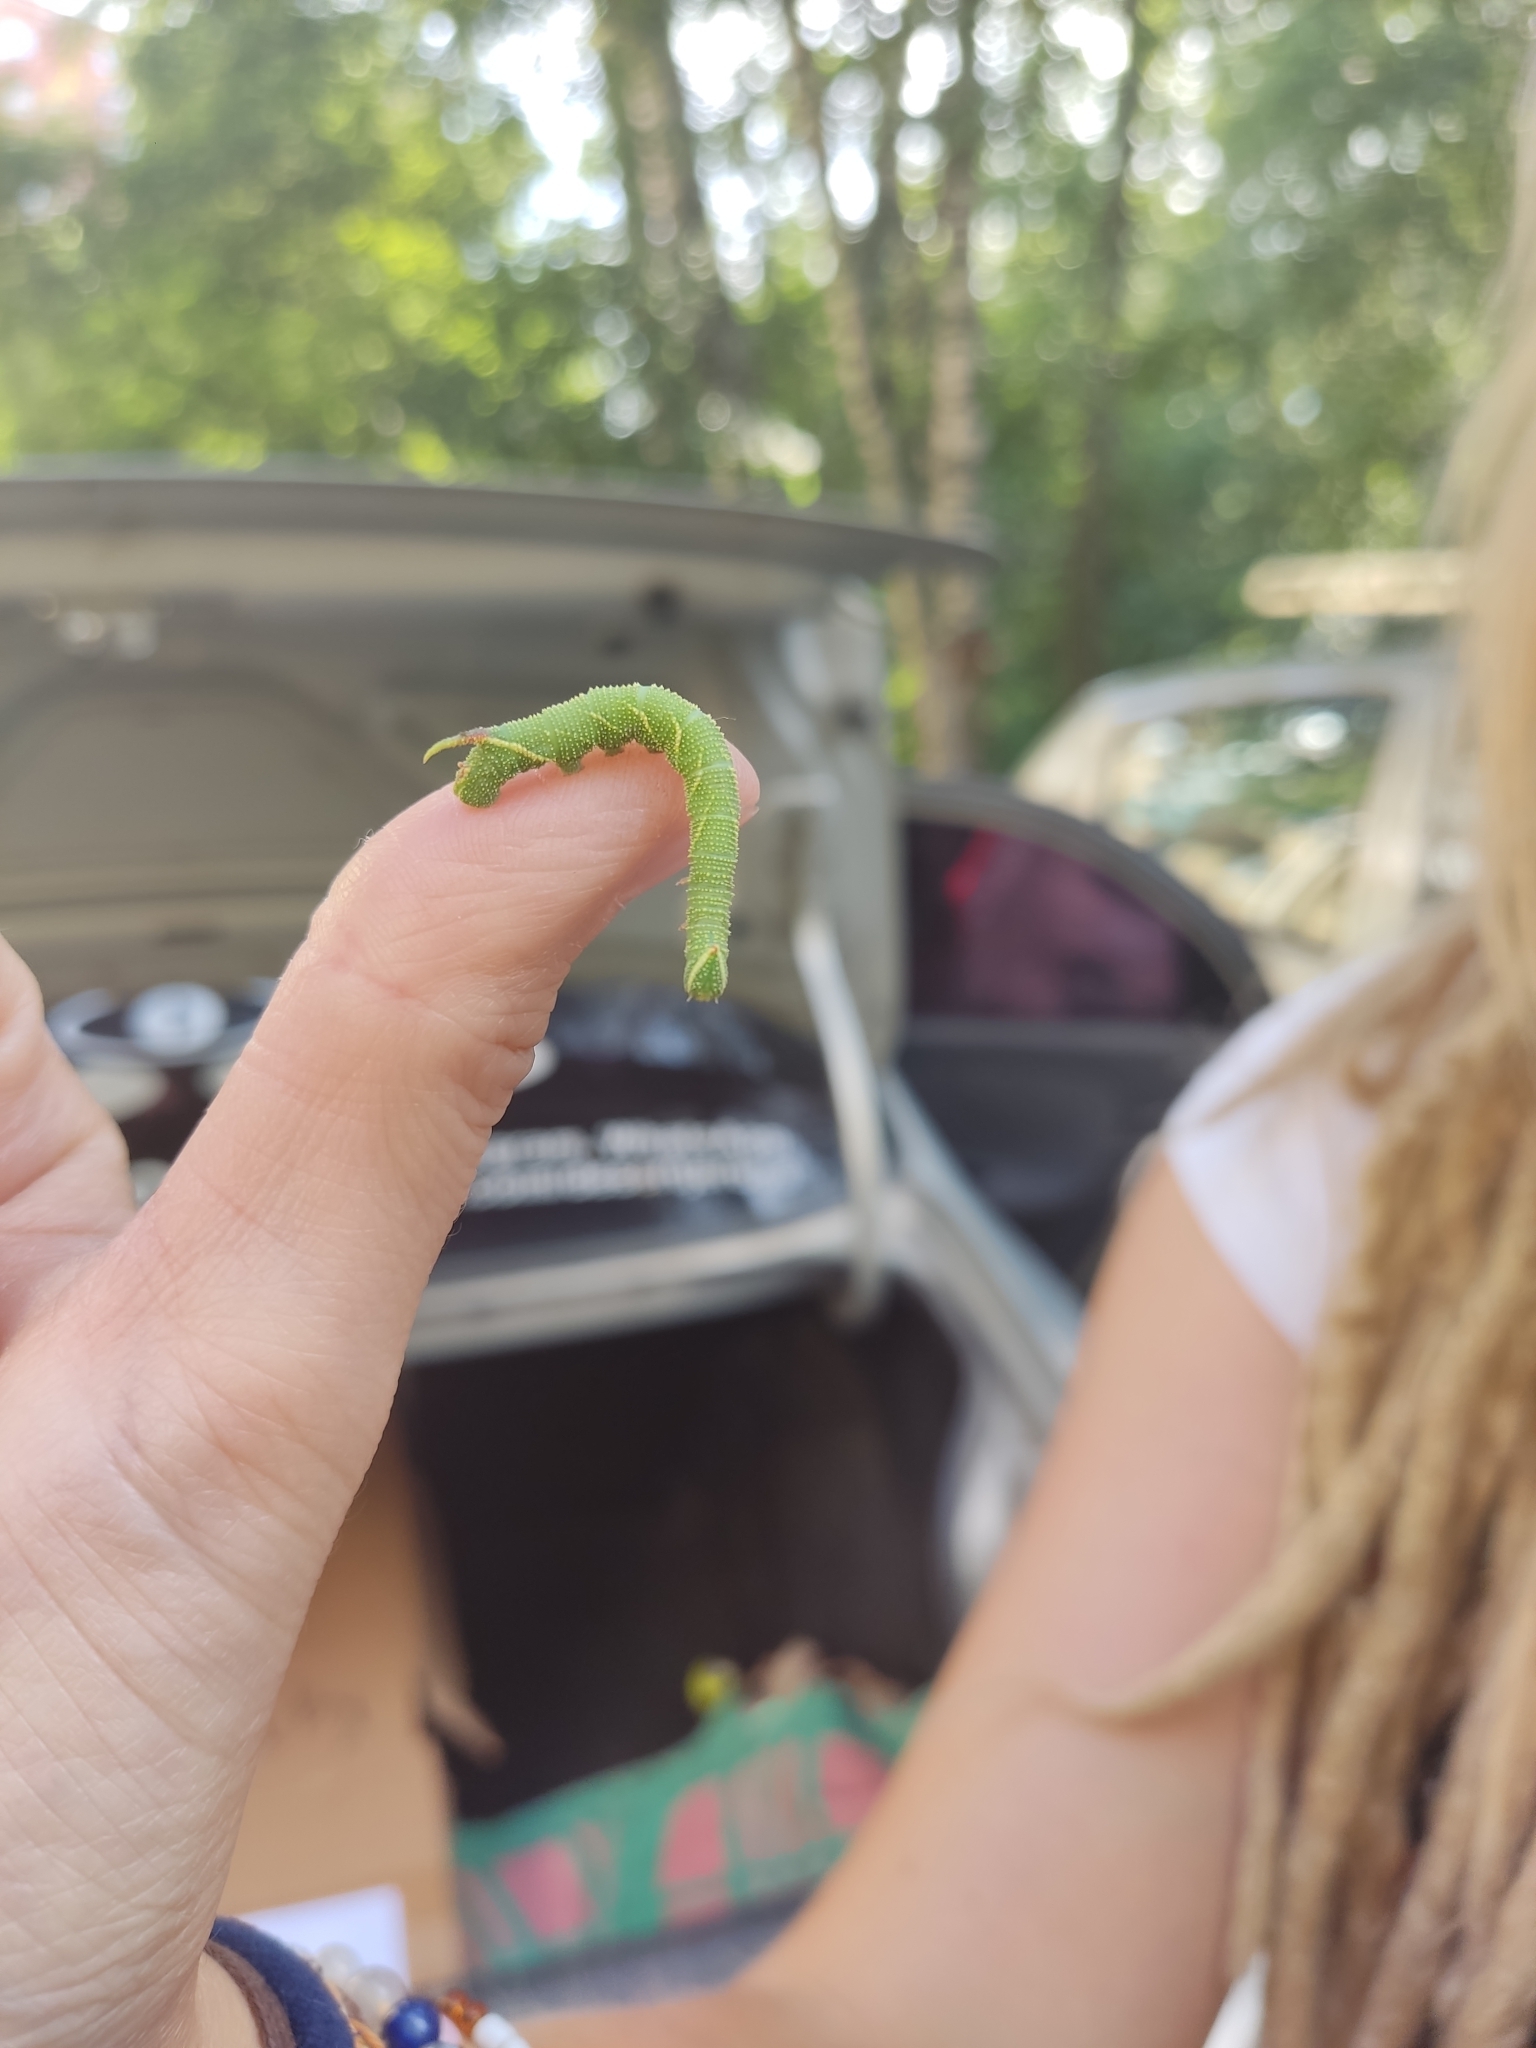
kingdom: Animalia
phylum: Arthropoda
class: Insecta
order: Lepidoptera
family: Sphingidae
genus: Mimas
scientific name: Mimas tiliae
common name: Lime hawk-moth
